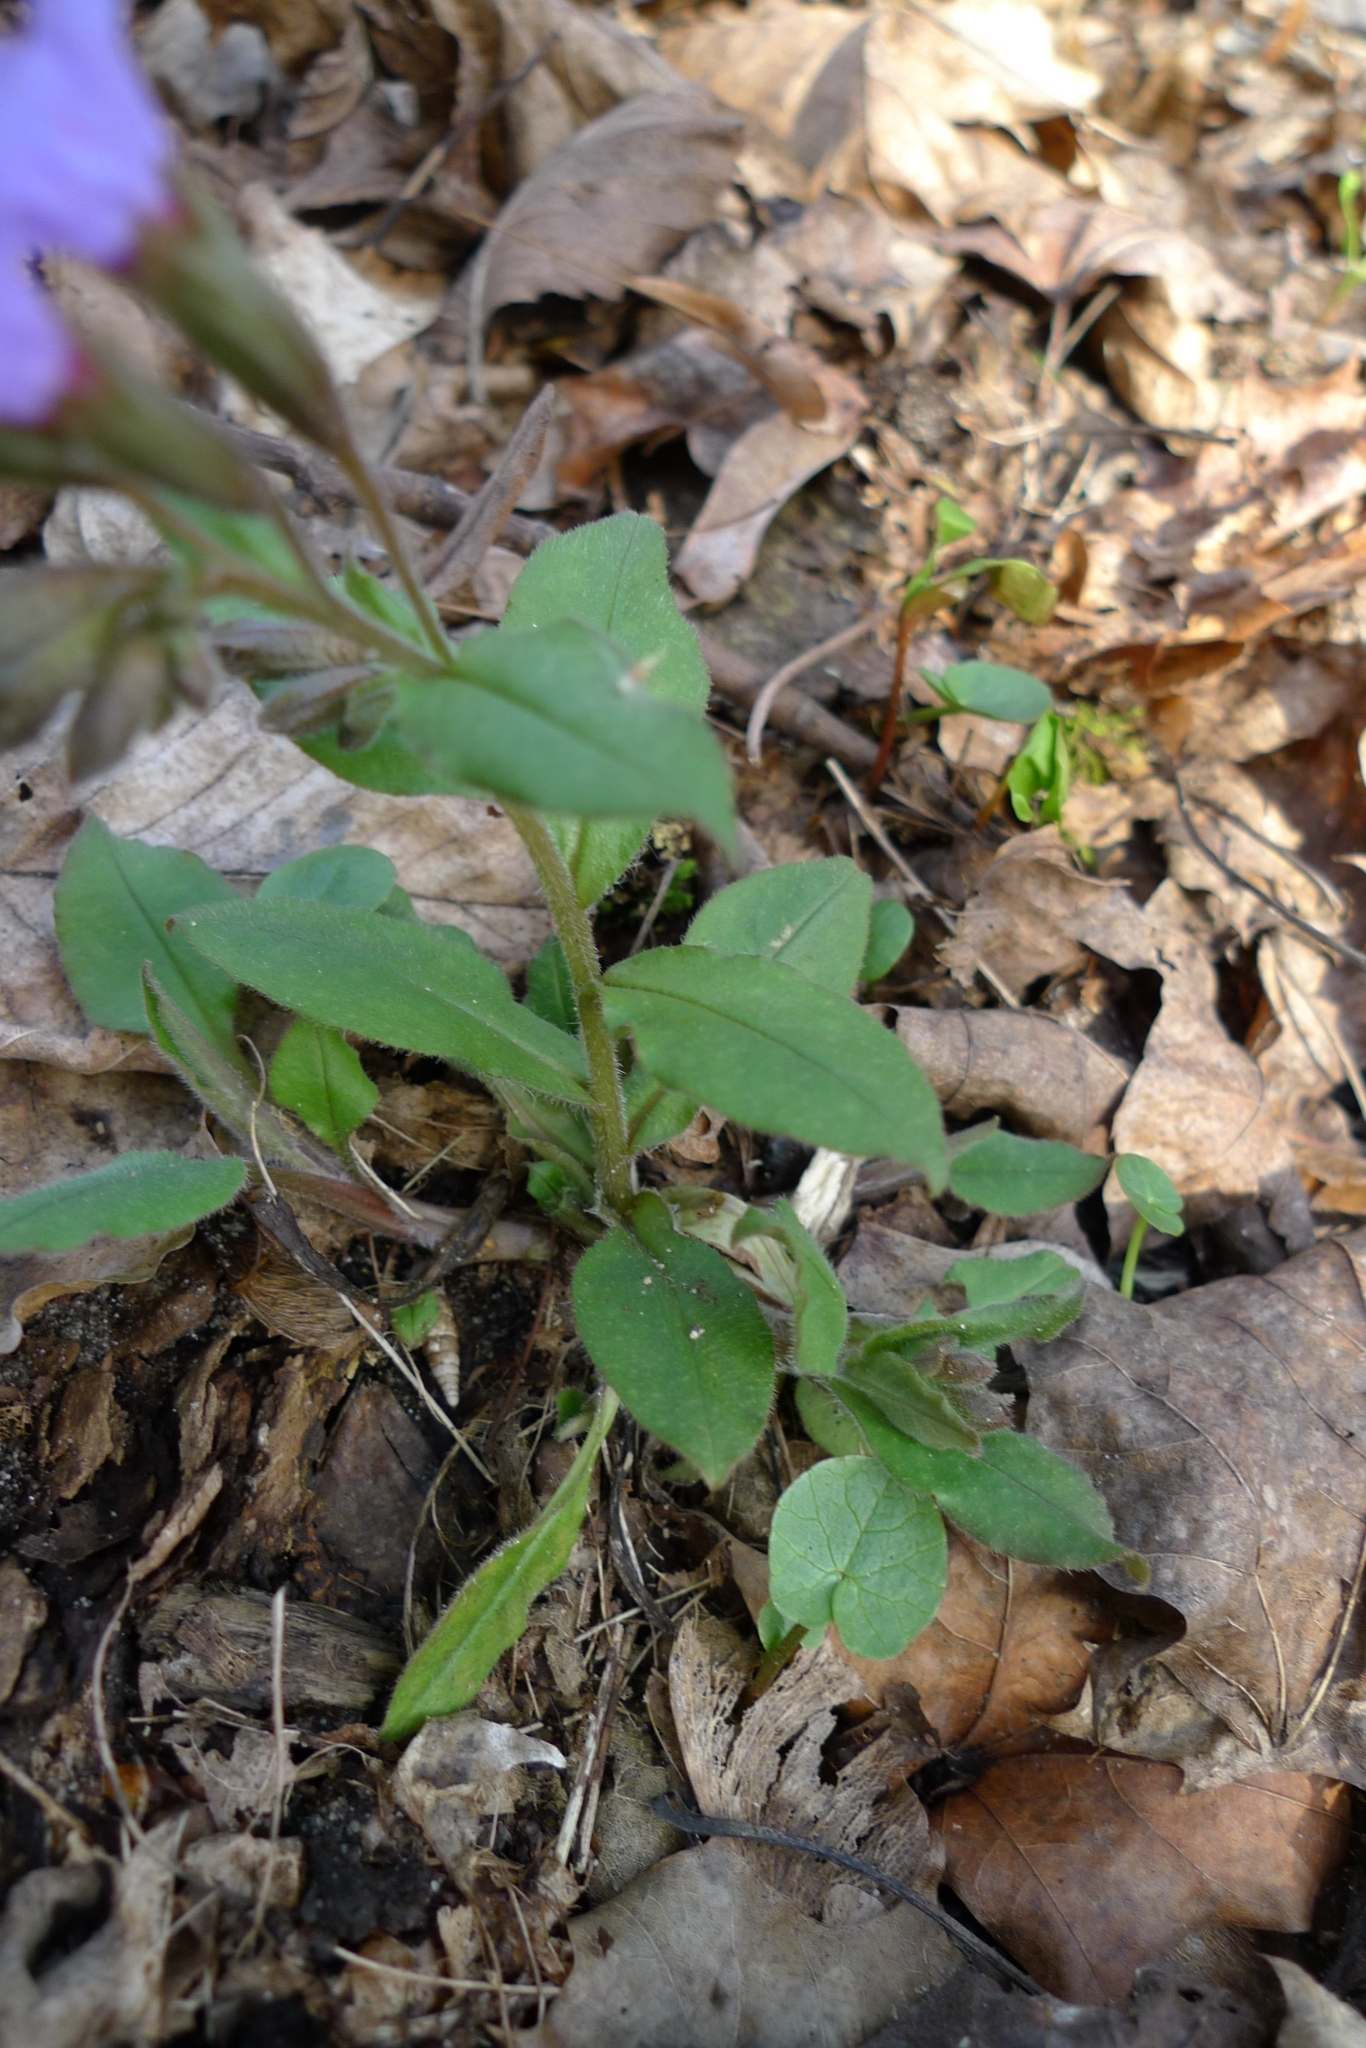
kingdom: Plantae
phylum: Tracheophyta
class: Magnoliopsida
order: Boraginales
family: Boraginaceae
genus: Pulmonaria
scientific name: Pulmonaria obscura
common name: Suffolk lungwort
